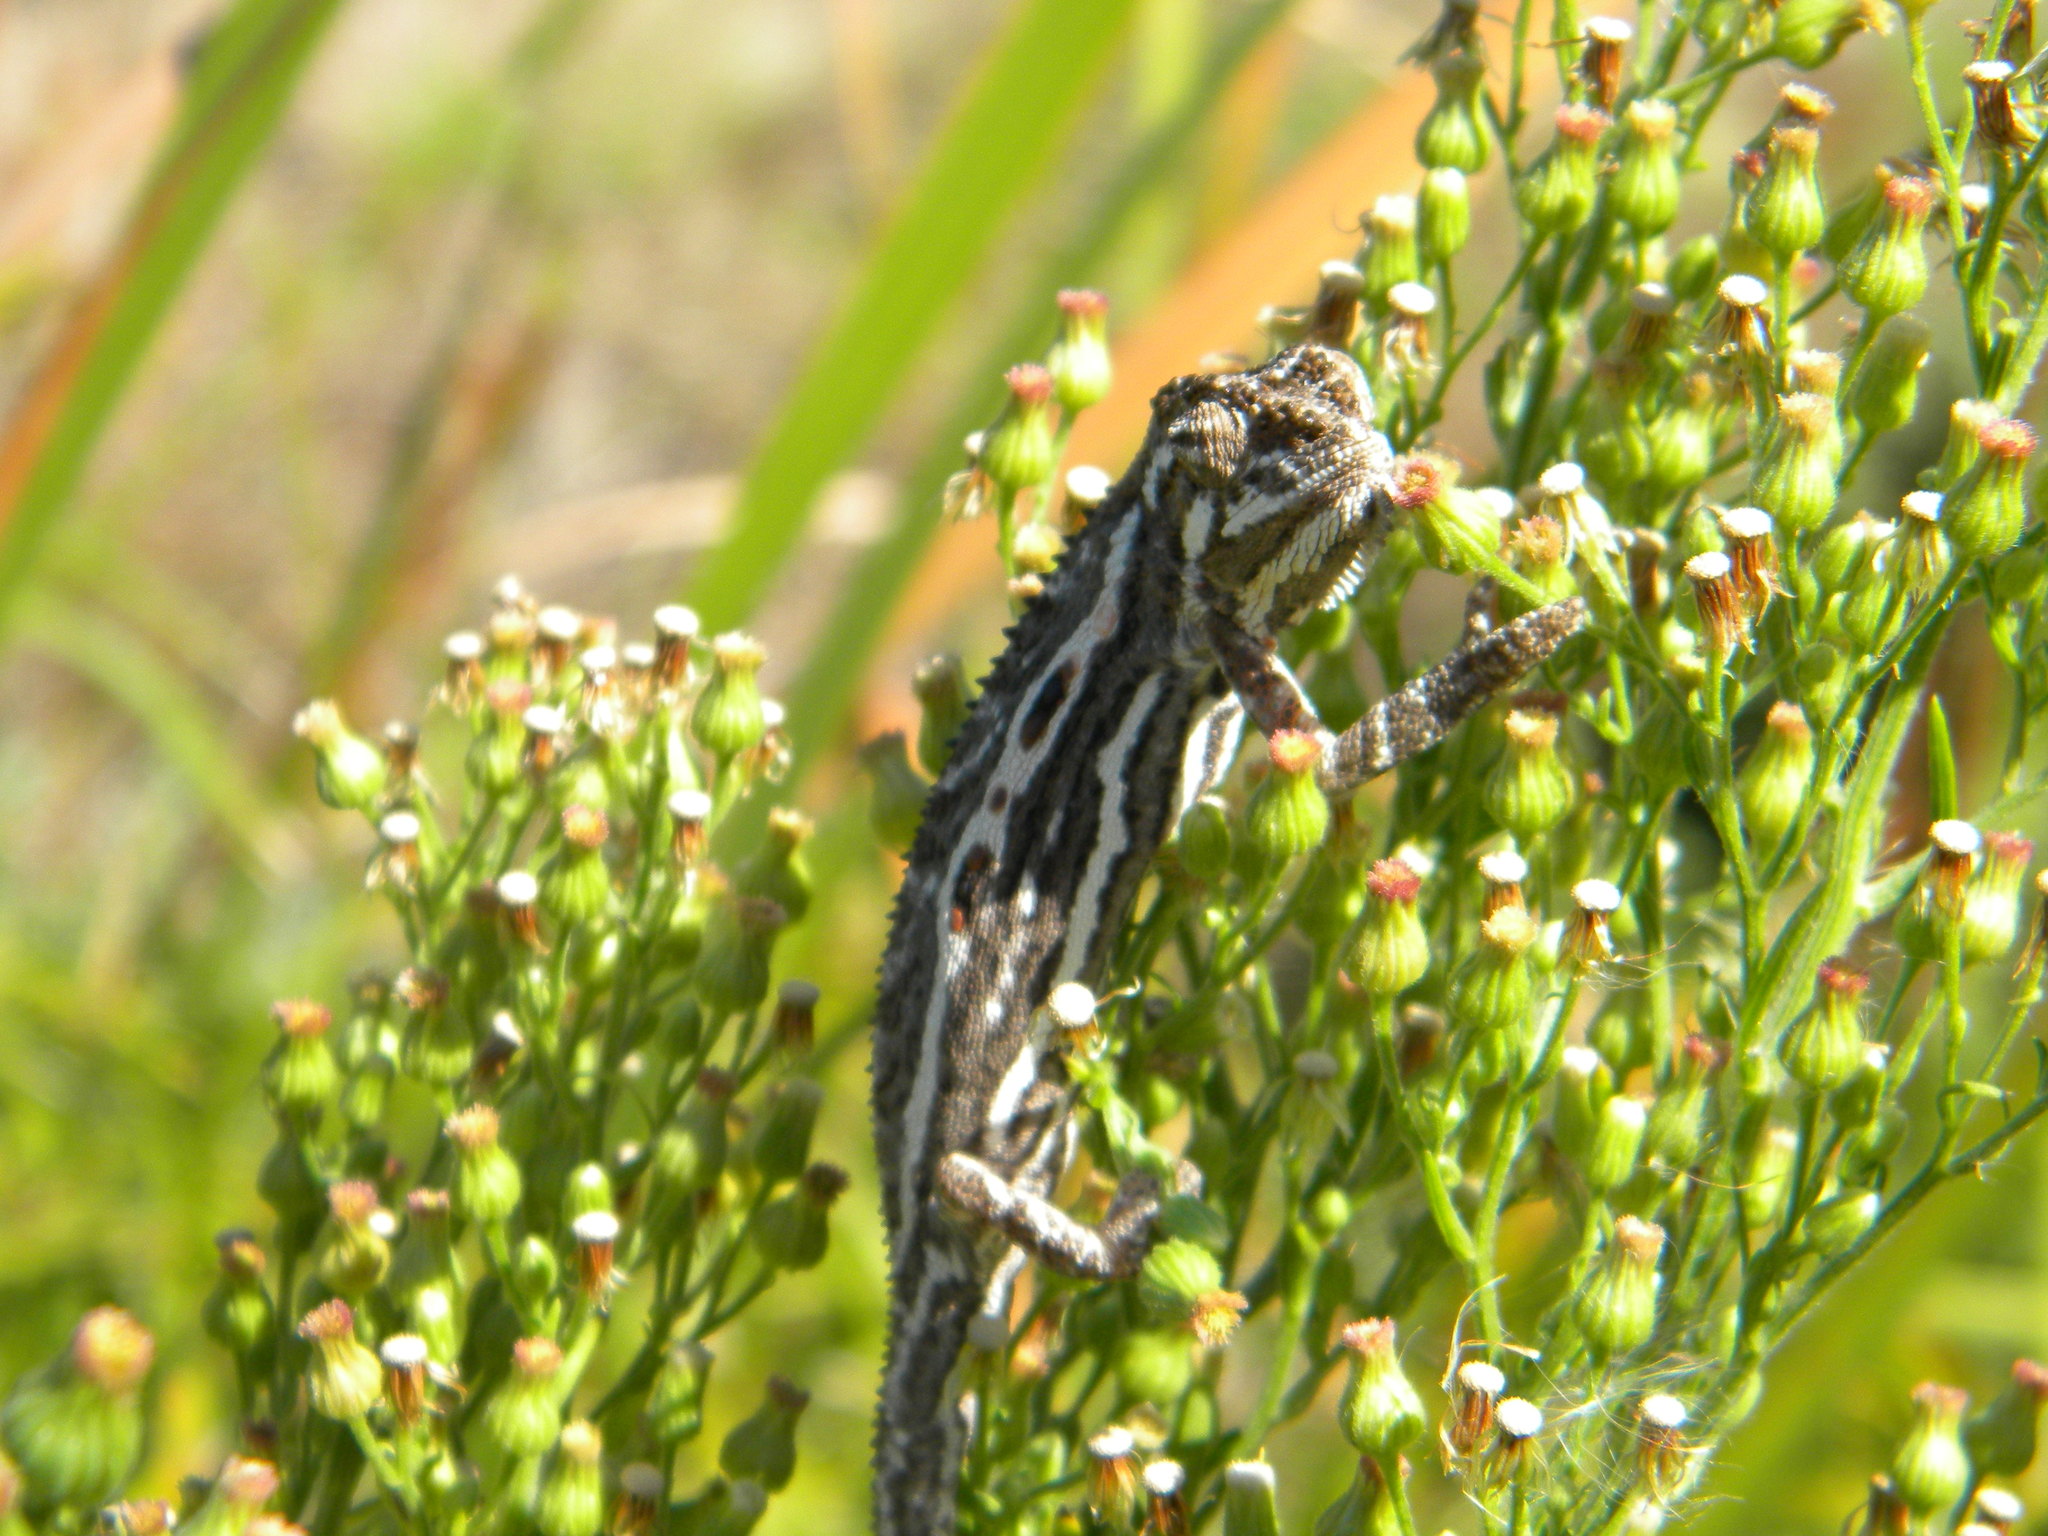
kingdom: Animalia
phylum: Chordata
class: Squamata
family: Chamaeleonidae
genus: Bradypodion
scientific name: Bradypodion pumilum
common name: Cape dwarf chameleon
